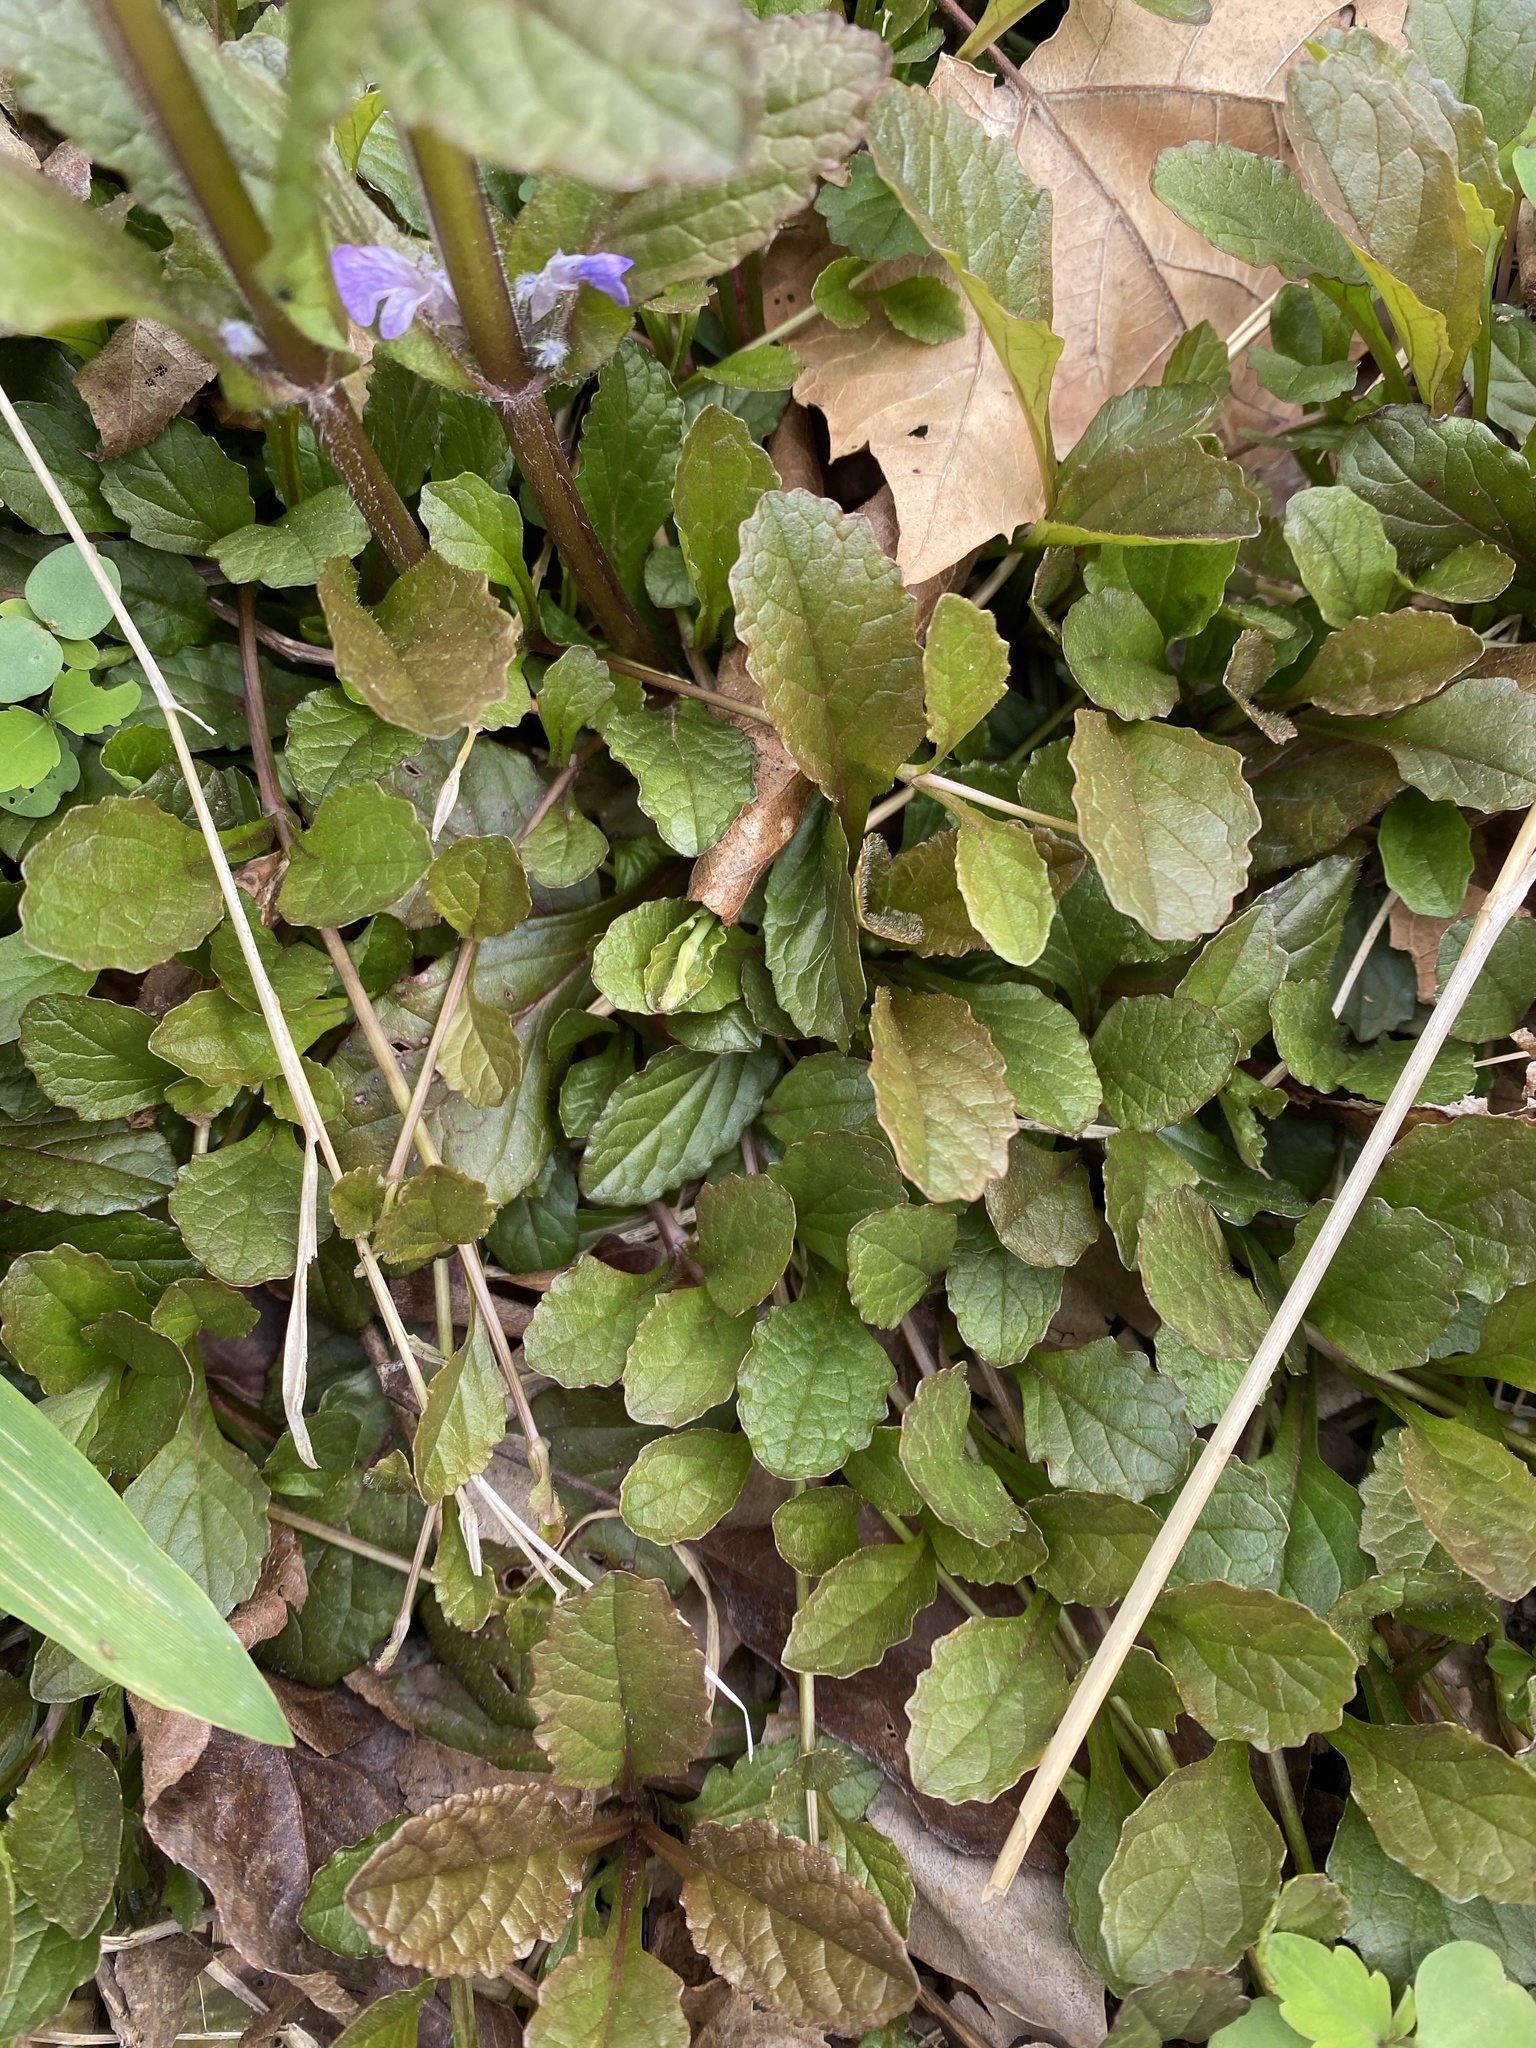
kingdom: Plantae
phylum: Tracheophyta
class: Magnoliopsida
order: Lamiales
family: Lamiaceae
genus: Ajuga
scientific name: Ajuga reptans
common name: Bugle
